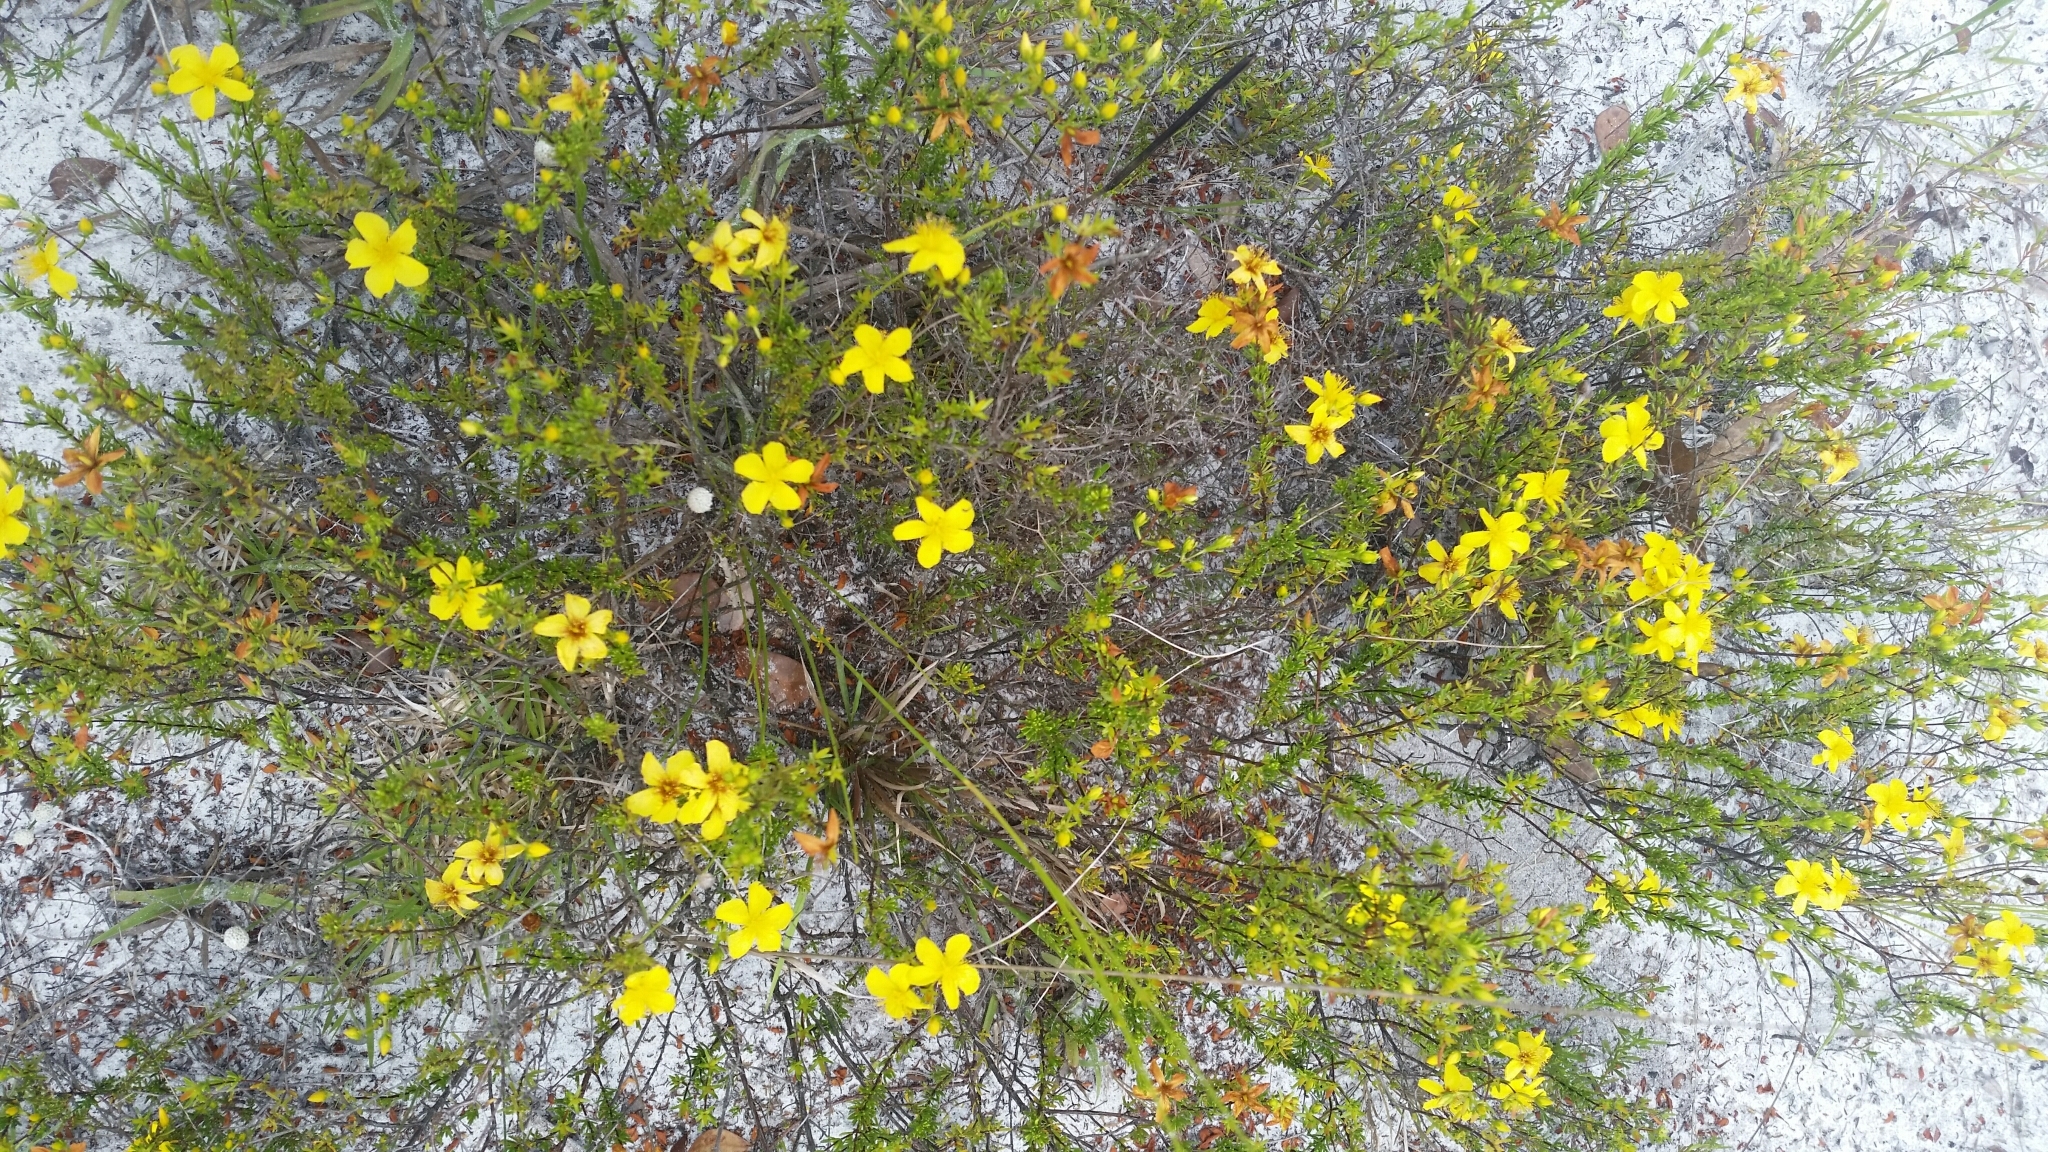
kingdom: Plantae
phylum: Tracheophyta
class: Magnoliopsida
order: Malpighiales
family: Hypericaceae
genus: Hypericum
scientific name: Hypericum tenuifolium
